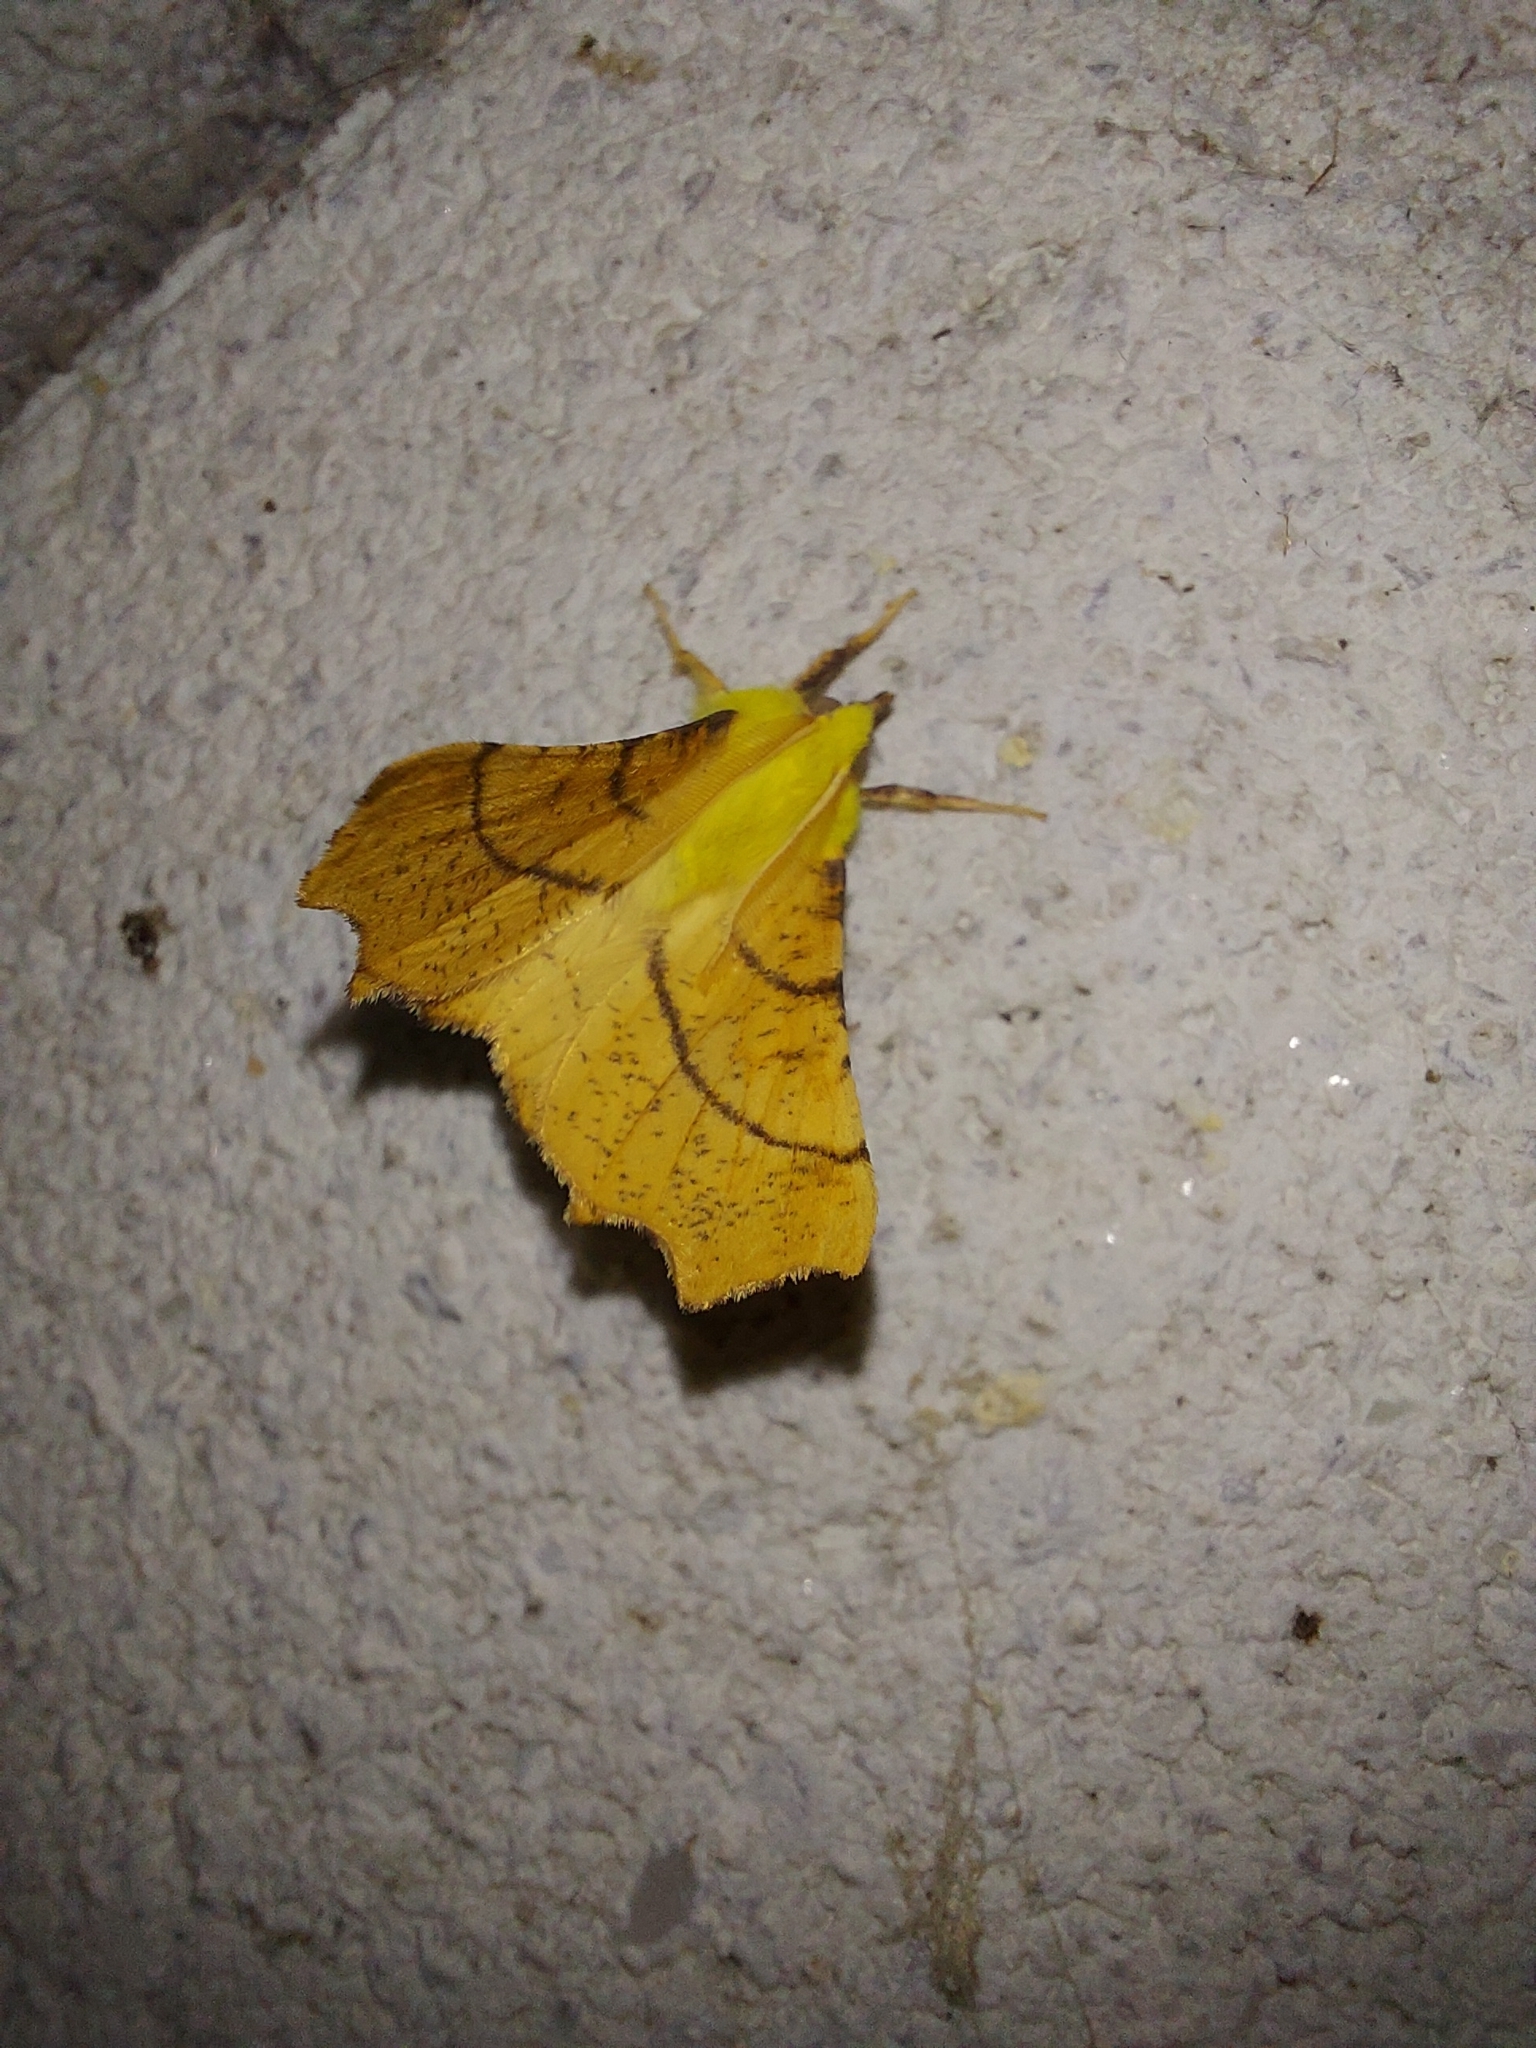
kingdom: Animalia
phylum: Arthropoda
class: Insecta
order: Lepidoptera
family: Geometridae
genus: Ennomos
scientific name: Ennomos alniaria
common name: Canary-shouldered thorn
